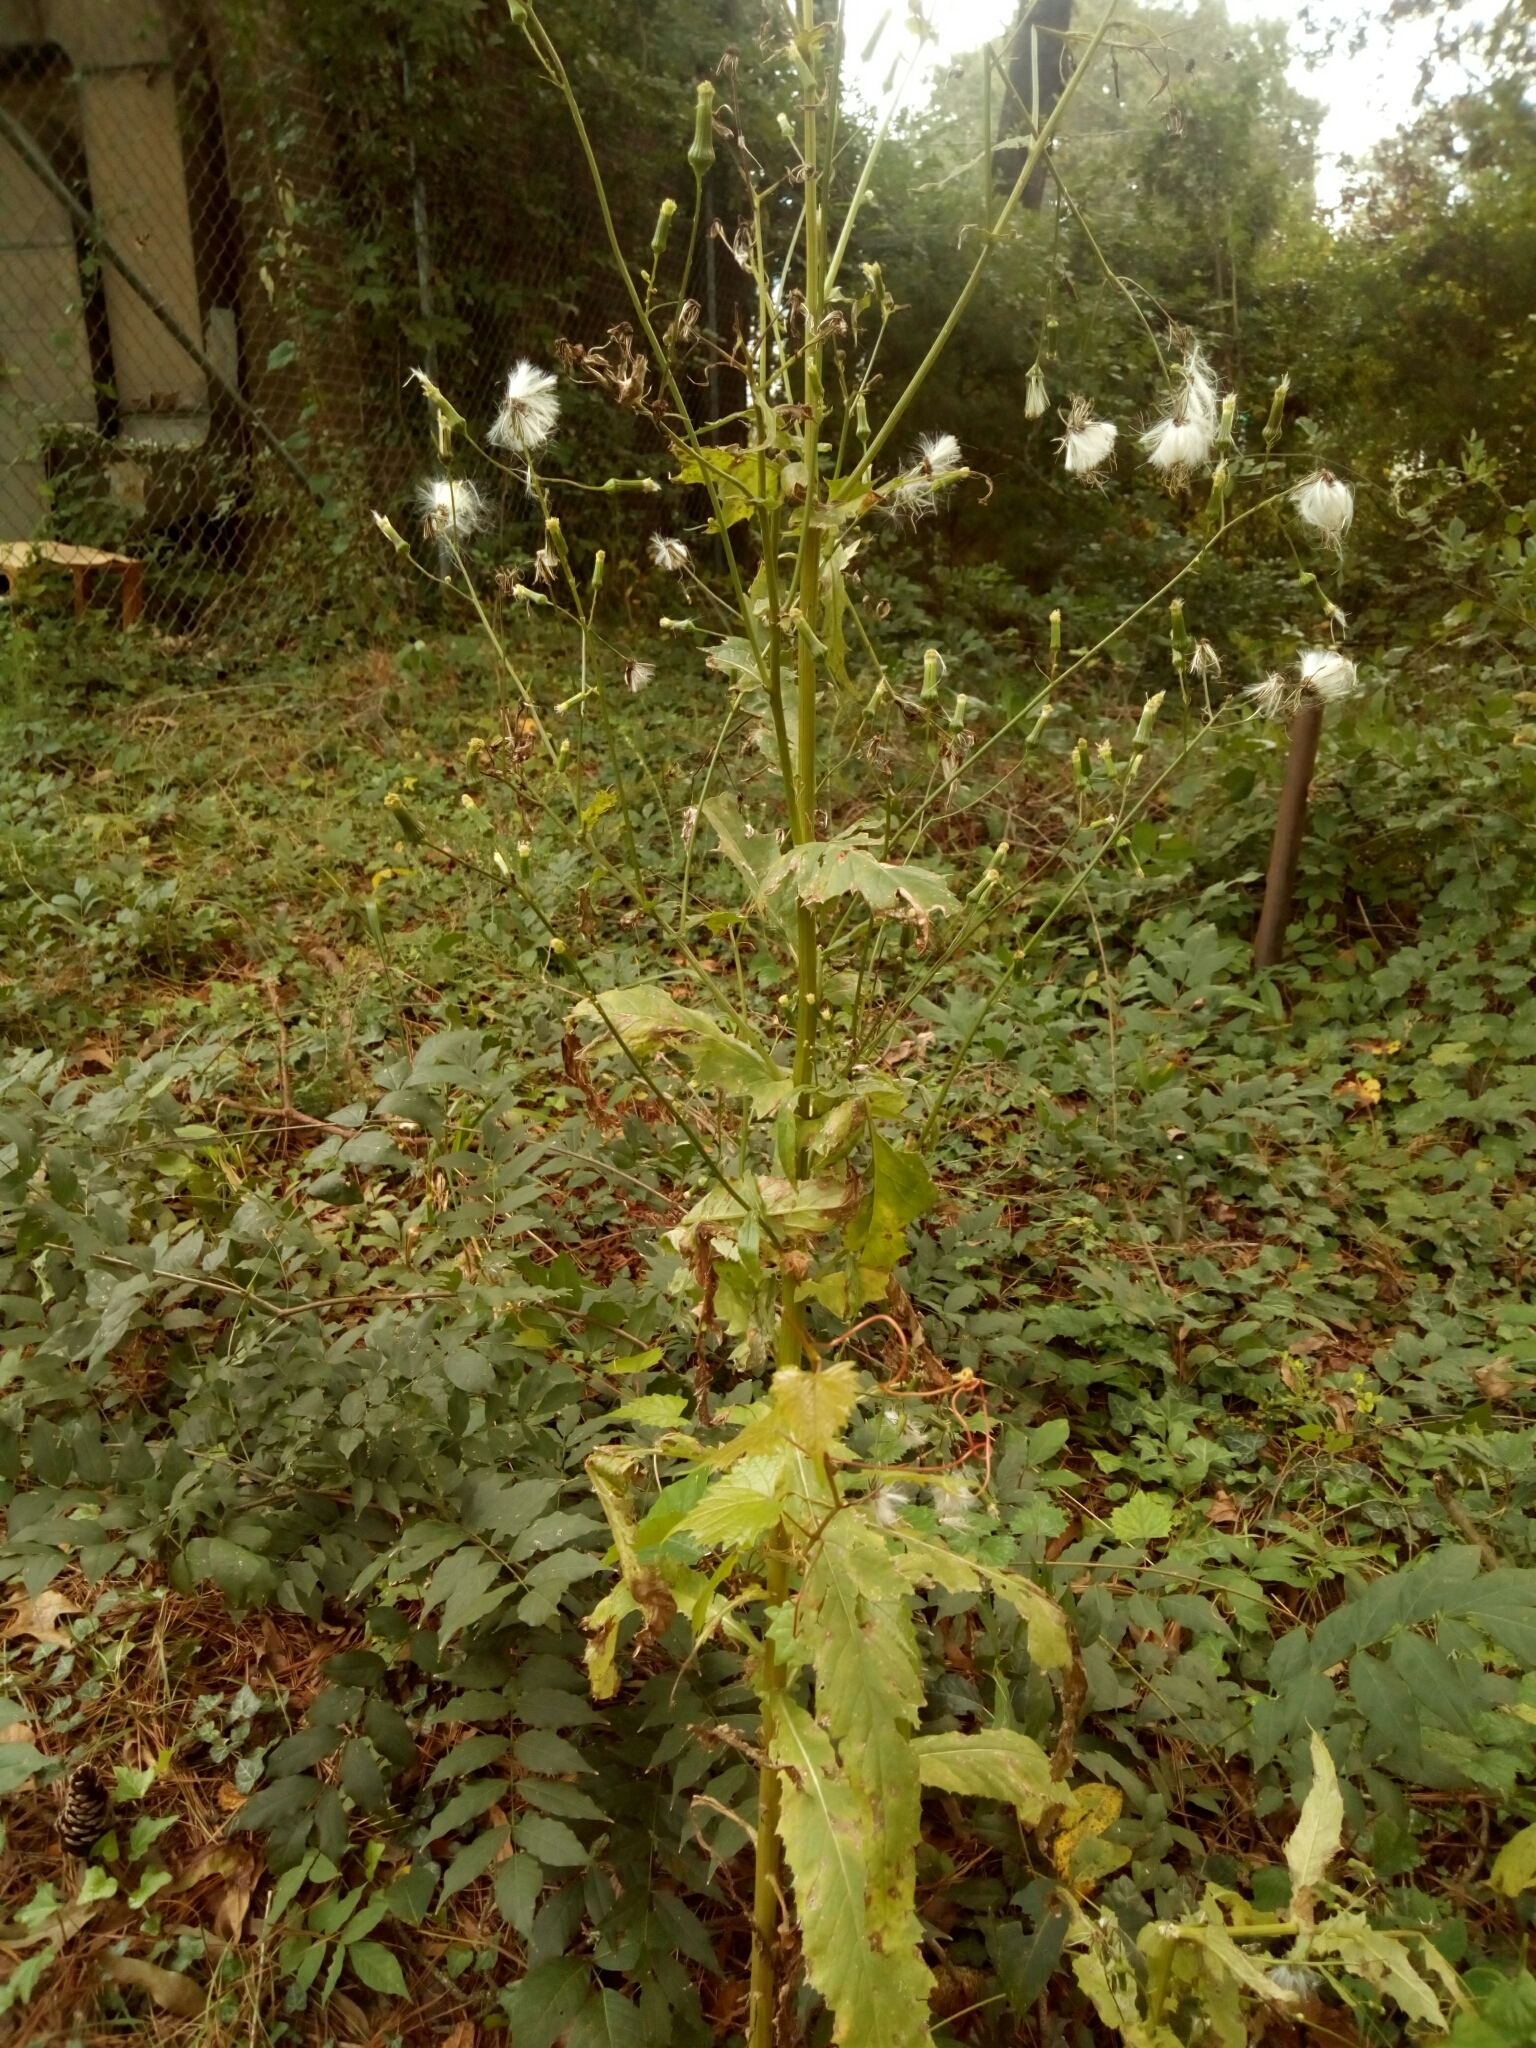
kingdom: Plantae
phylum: Tracheophyta
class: Magnoliopsida
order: Asterales
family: Asteraceae
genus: Erechtites
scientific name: Erechtites hieraciifolius
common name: American burnweed
